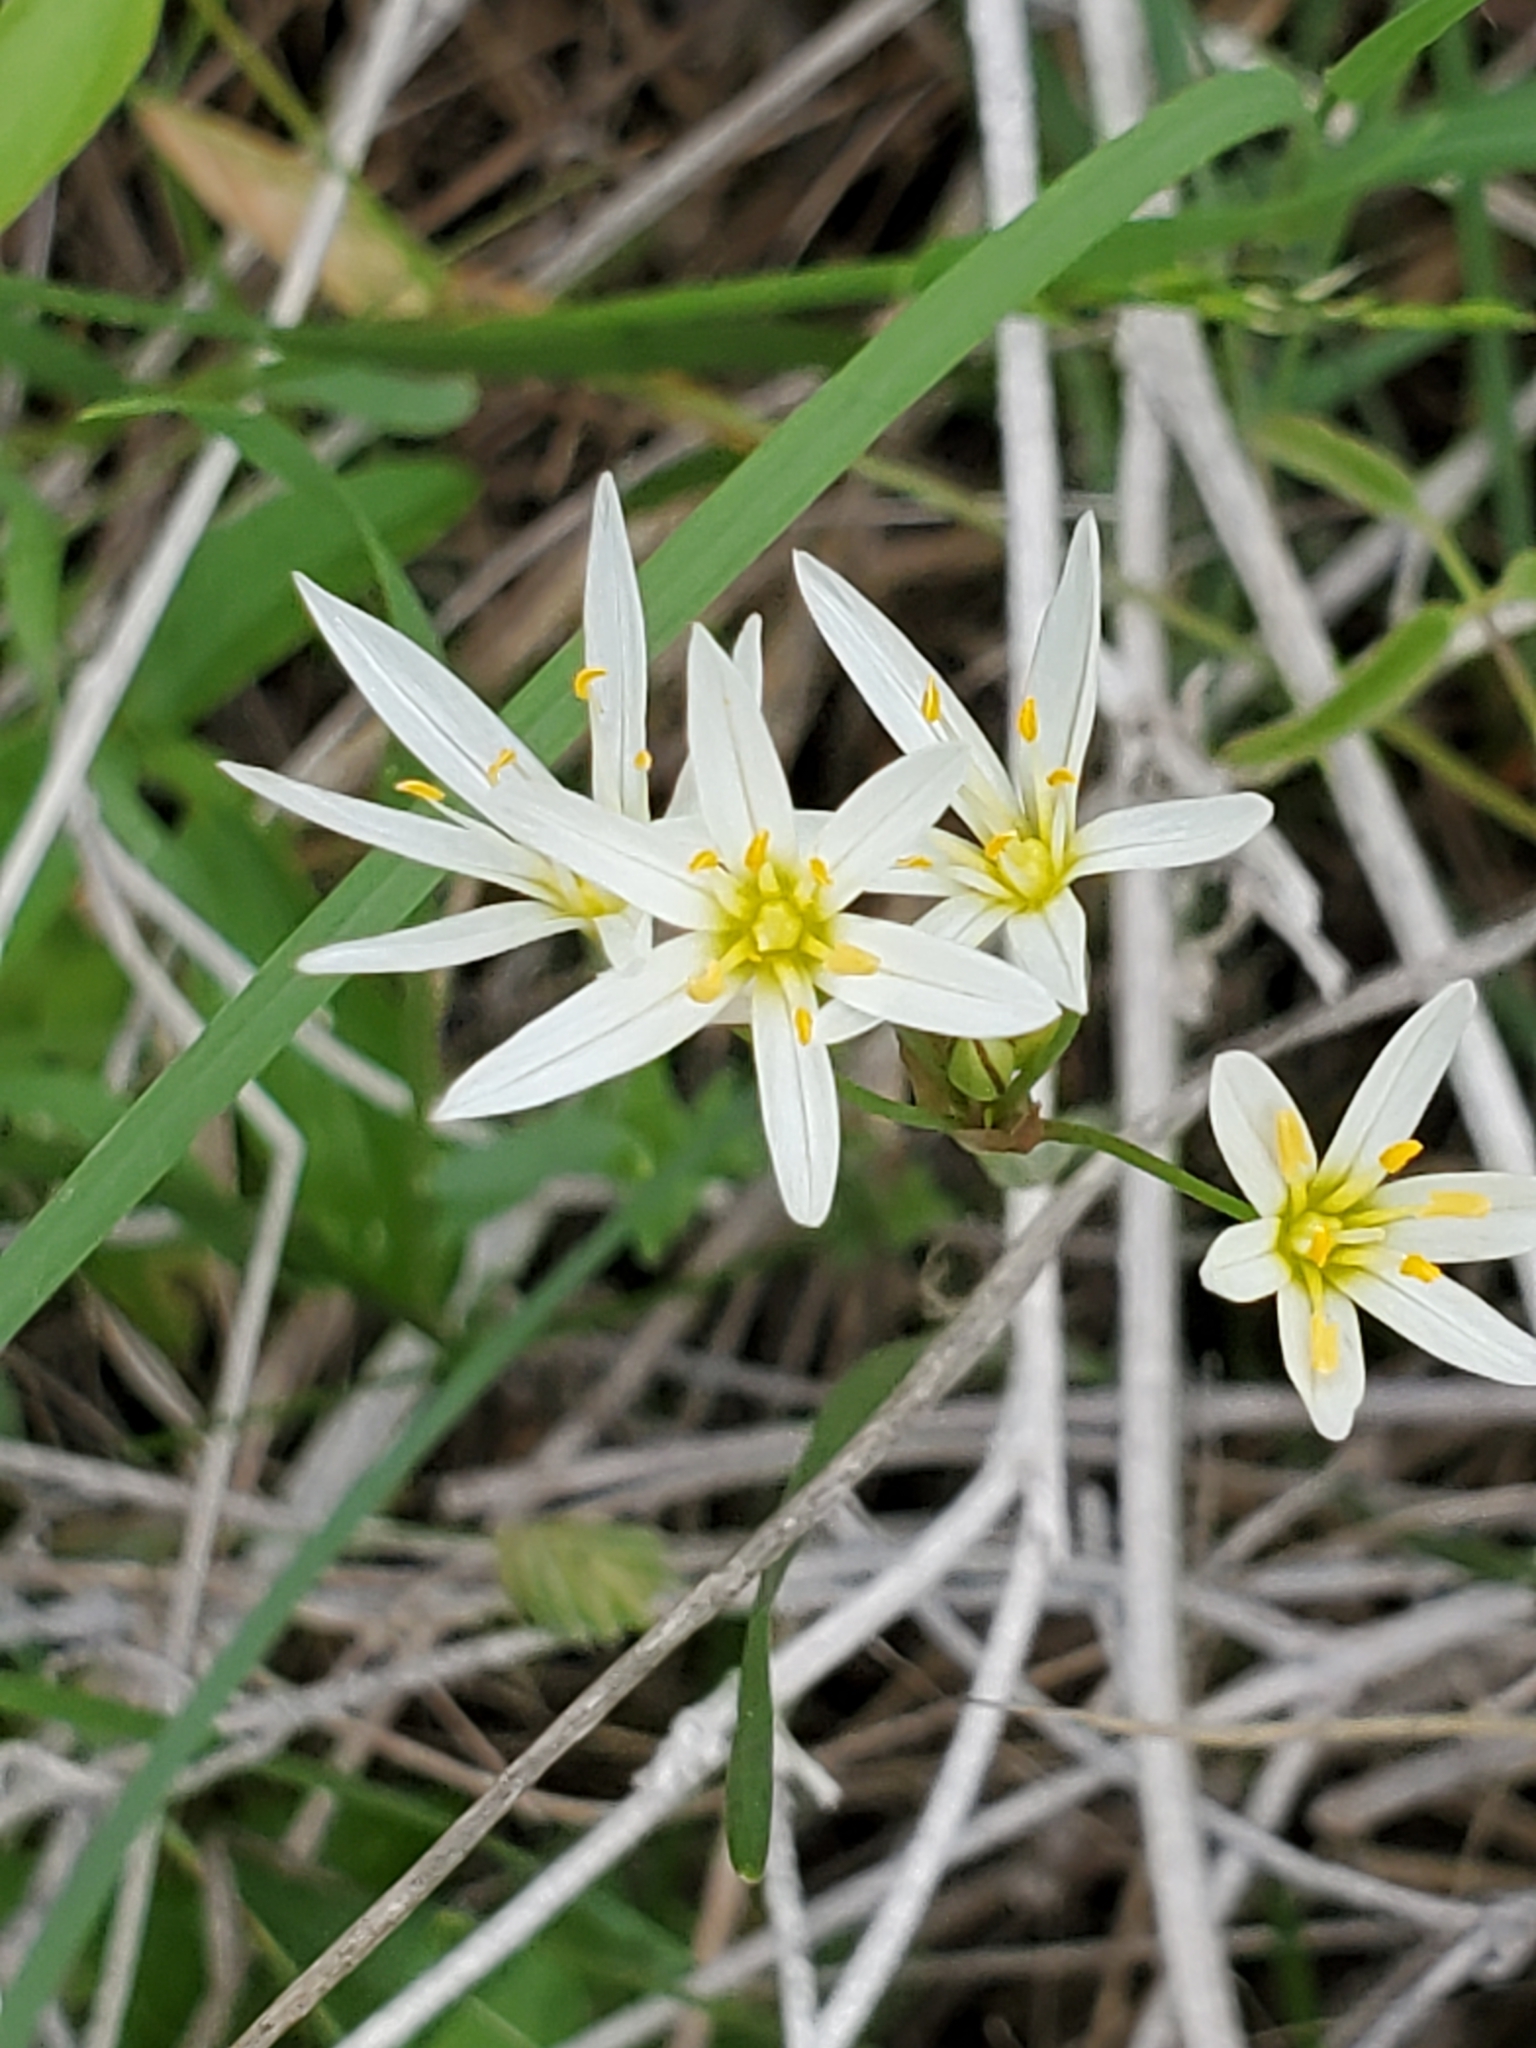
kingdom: Plantae
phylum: Tracheophyta
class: Liliopsida
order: Asparagales
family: Amaryllidaceae
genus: Nothoscordum
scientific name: Nothoscordum bivalve
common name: Crow-poison
